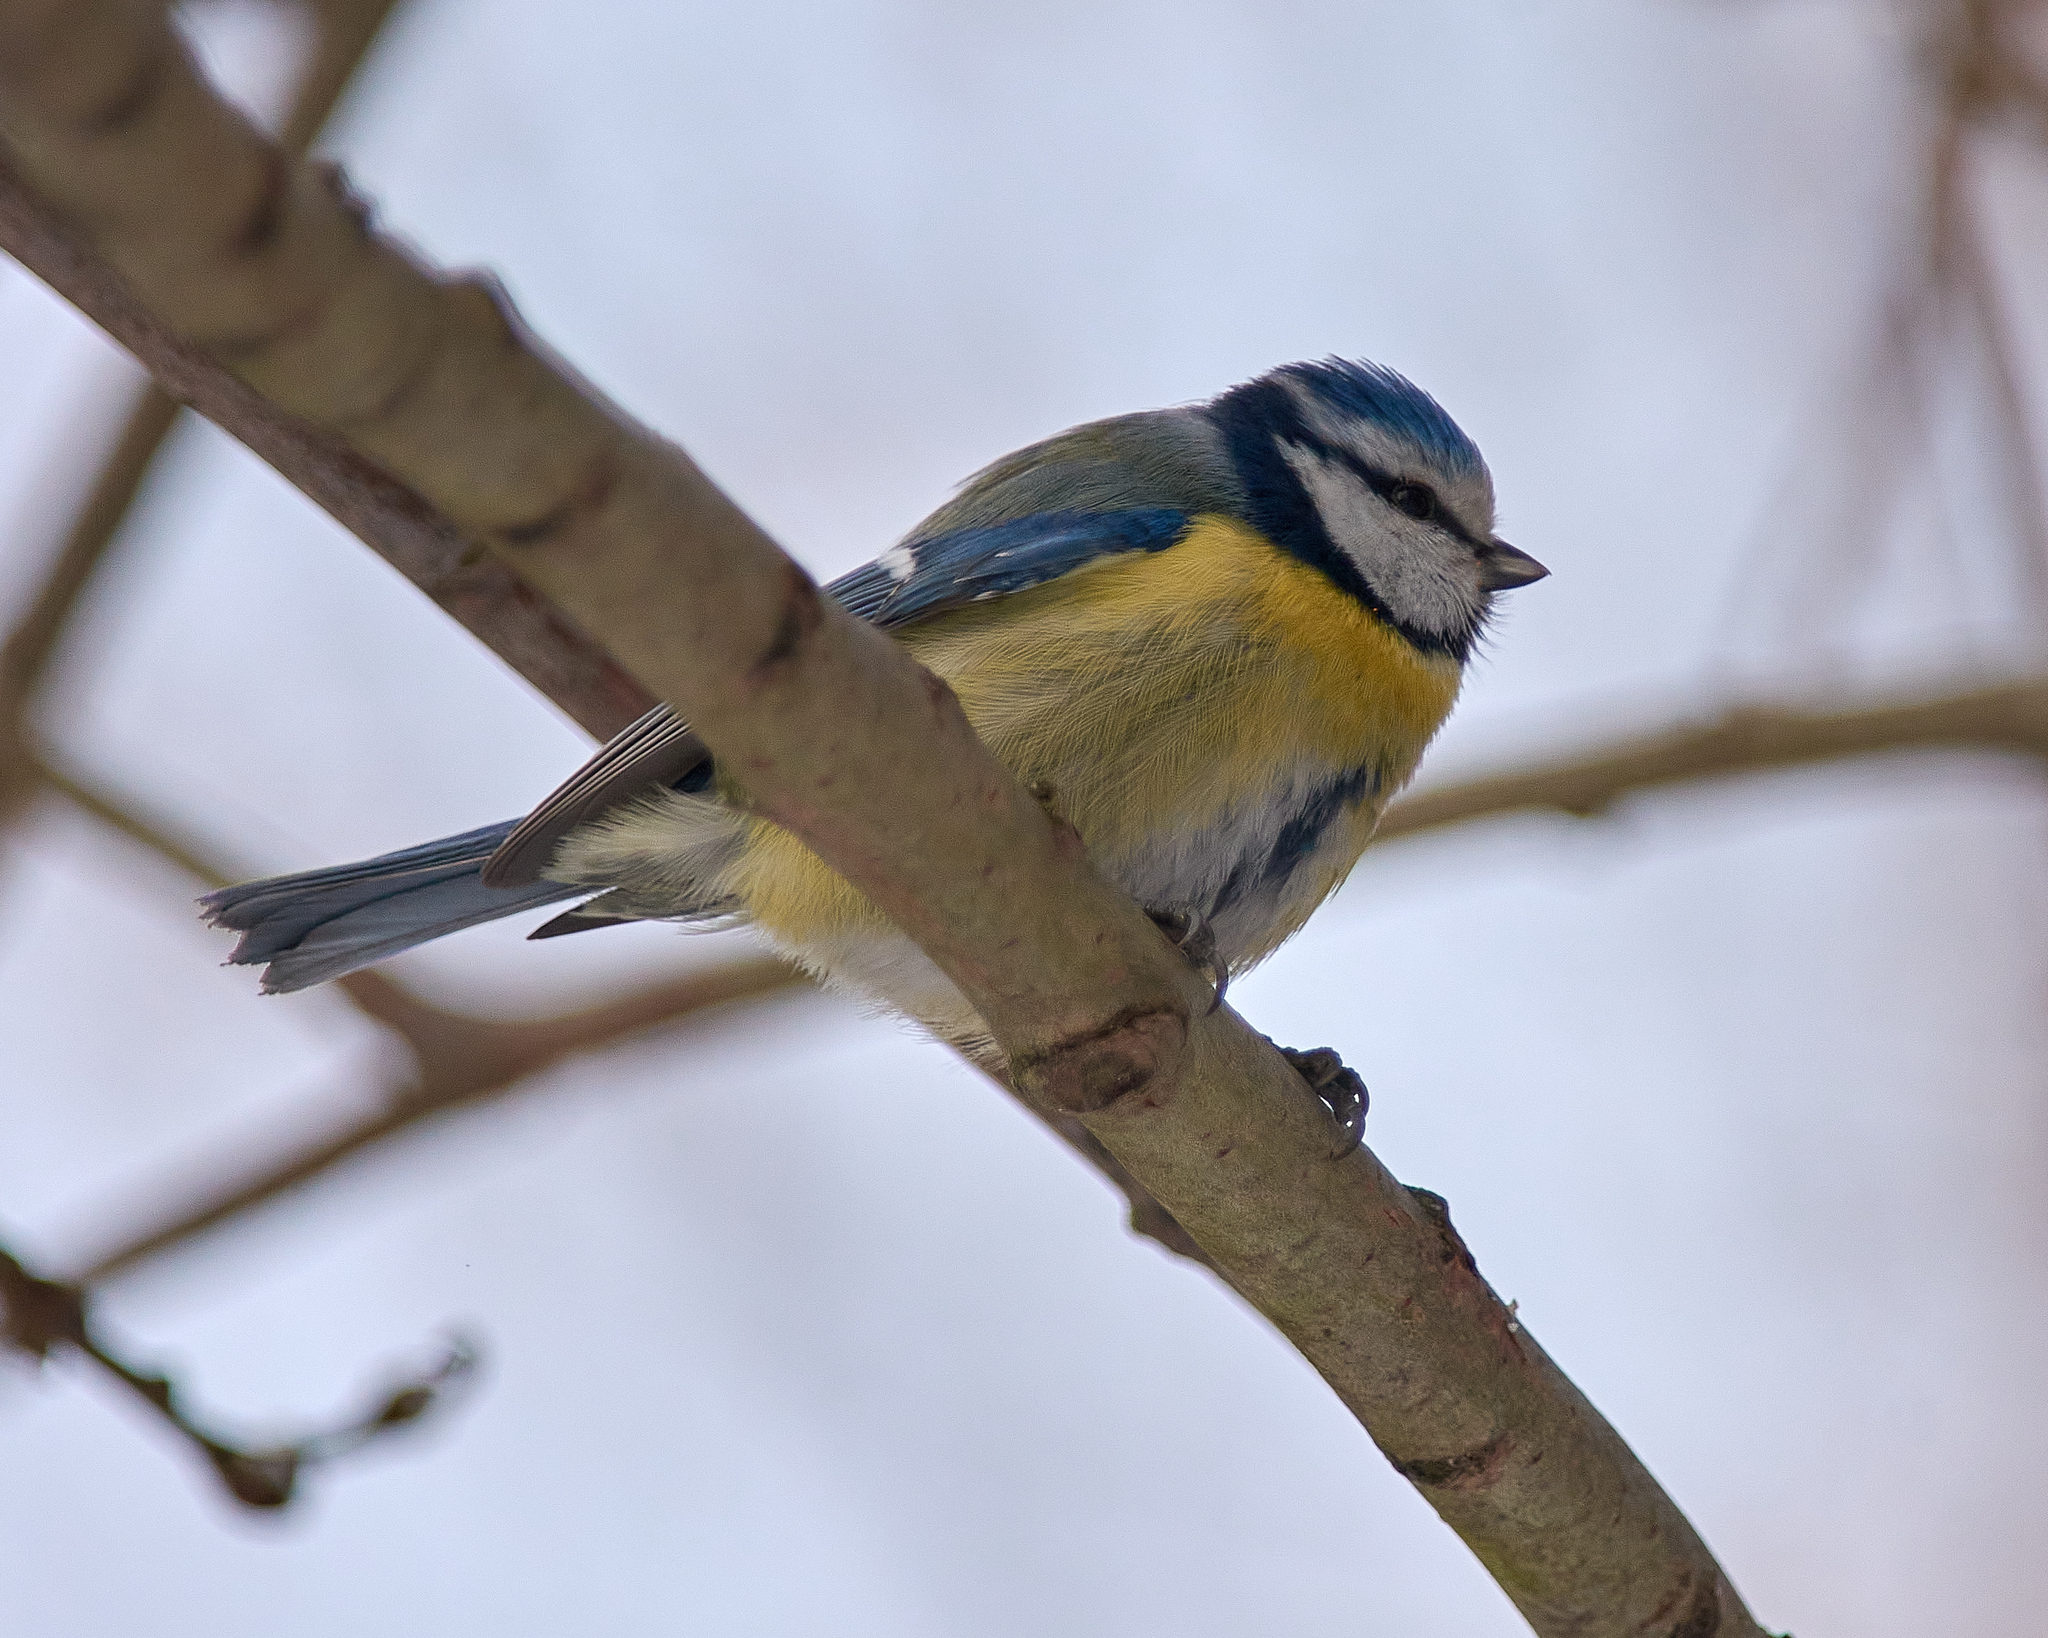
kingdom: Animalia
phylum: Chordata
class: Aves
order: Passeriformes
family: Paridae
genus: Cyanistes
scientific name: Cyanistes caeruleus
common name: Eurasian blue tit
